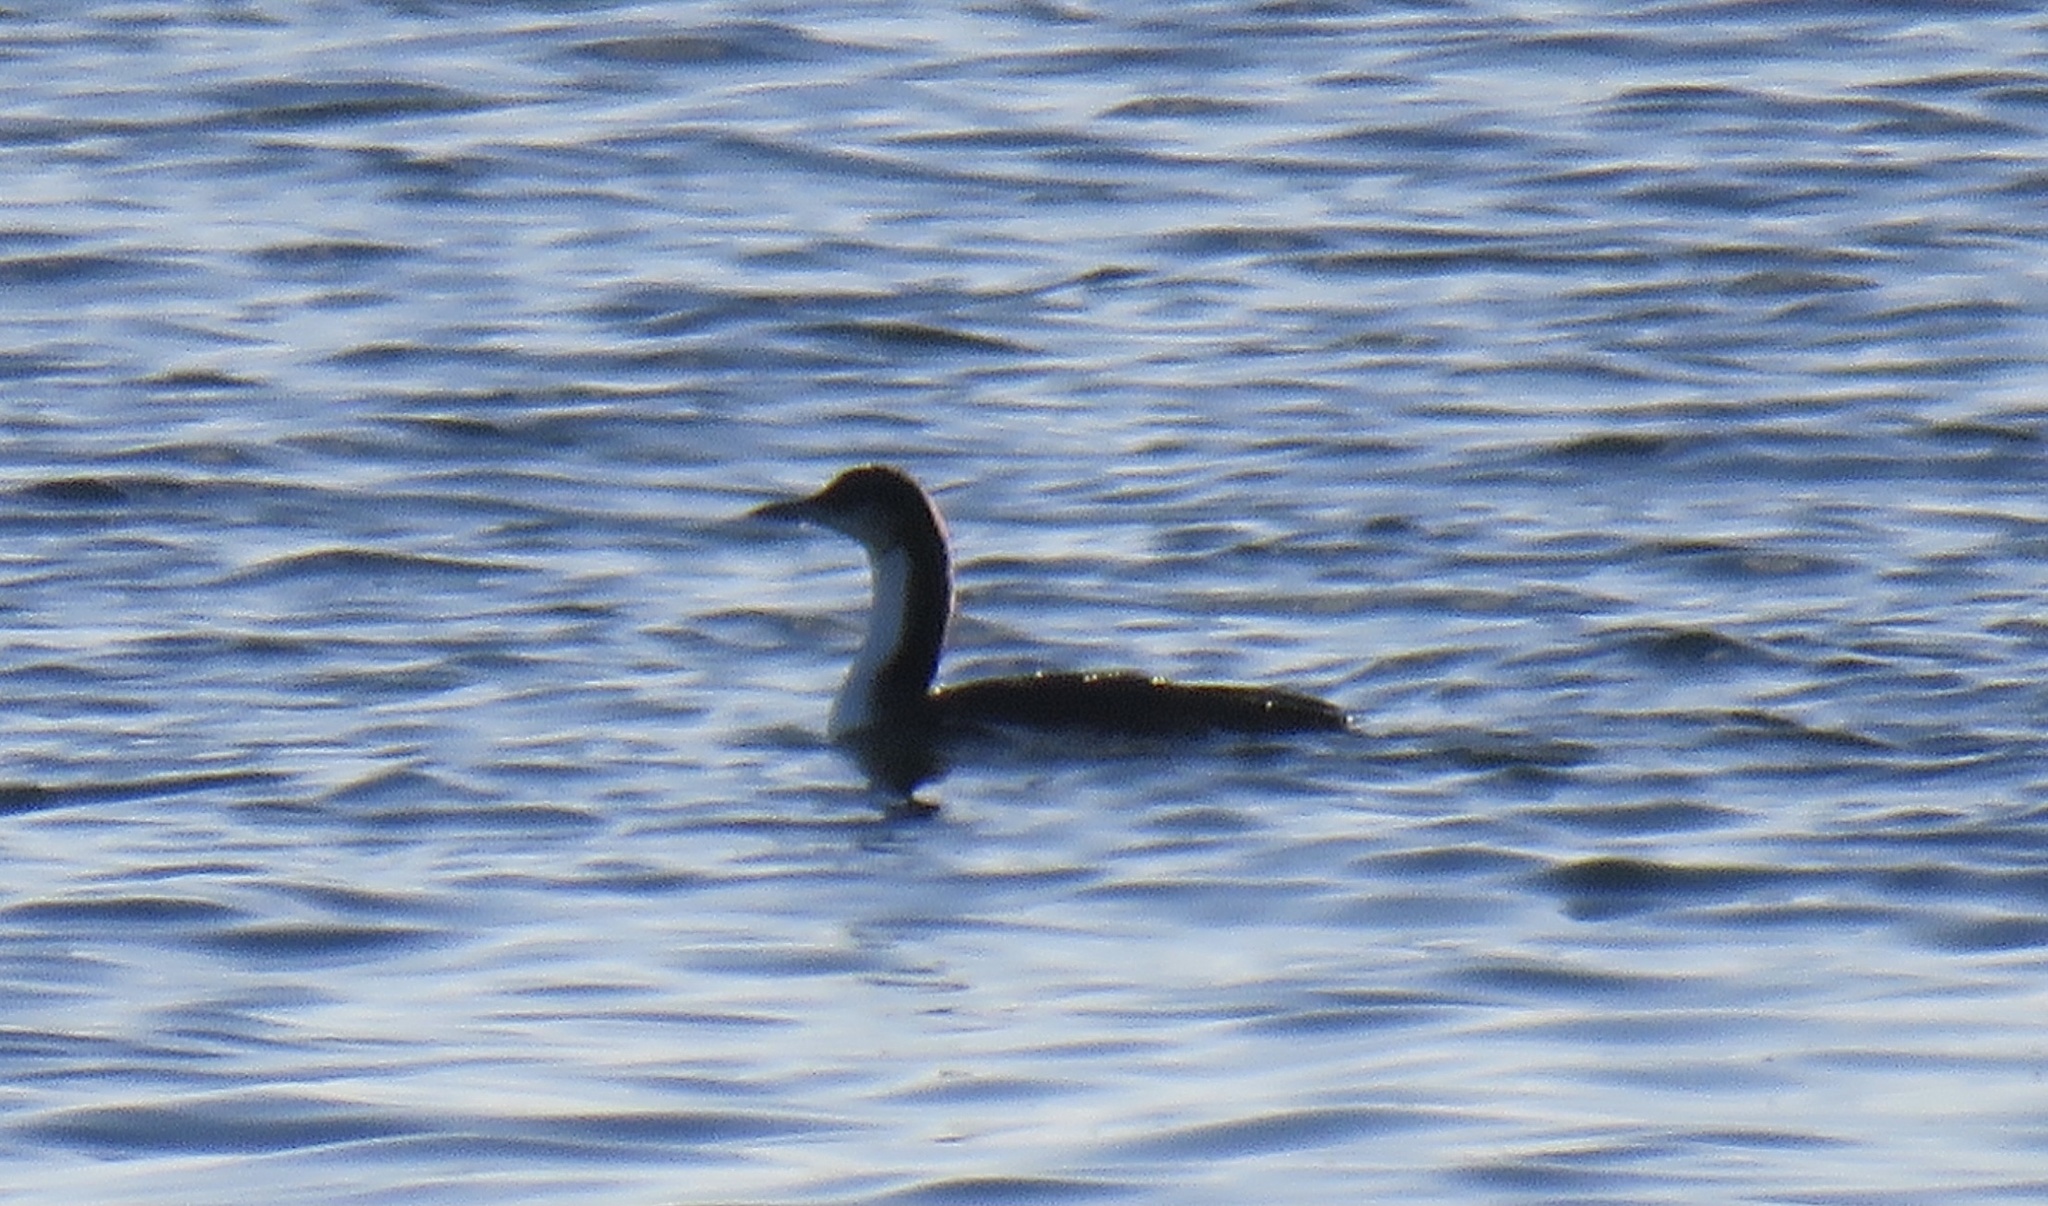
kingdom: Animalia
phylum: Chordata
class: Aves
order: Gaviiformes
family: Gaviidae
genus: Gavia
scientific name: Gavia pacifica
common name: Pacific loon
